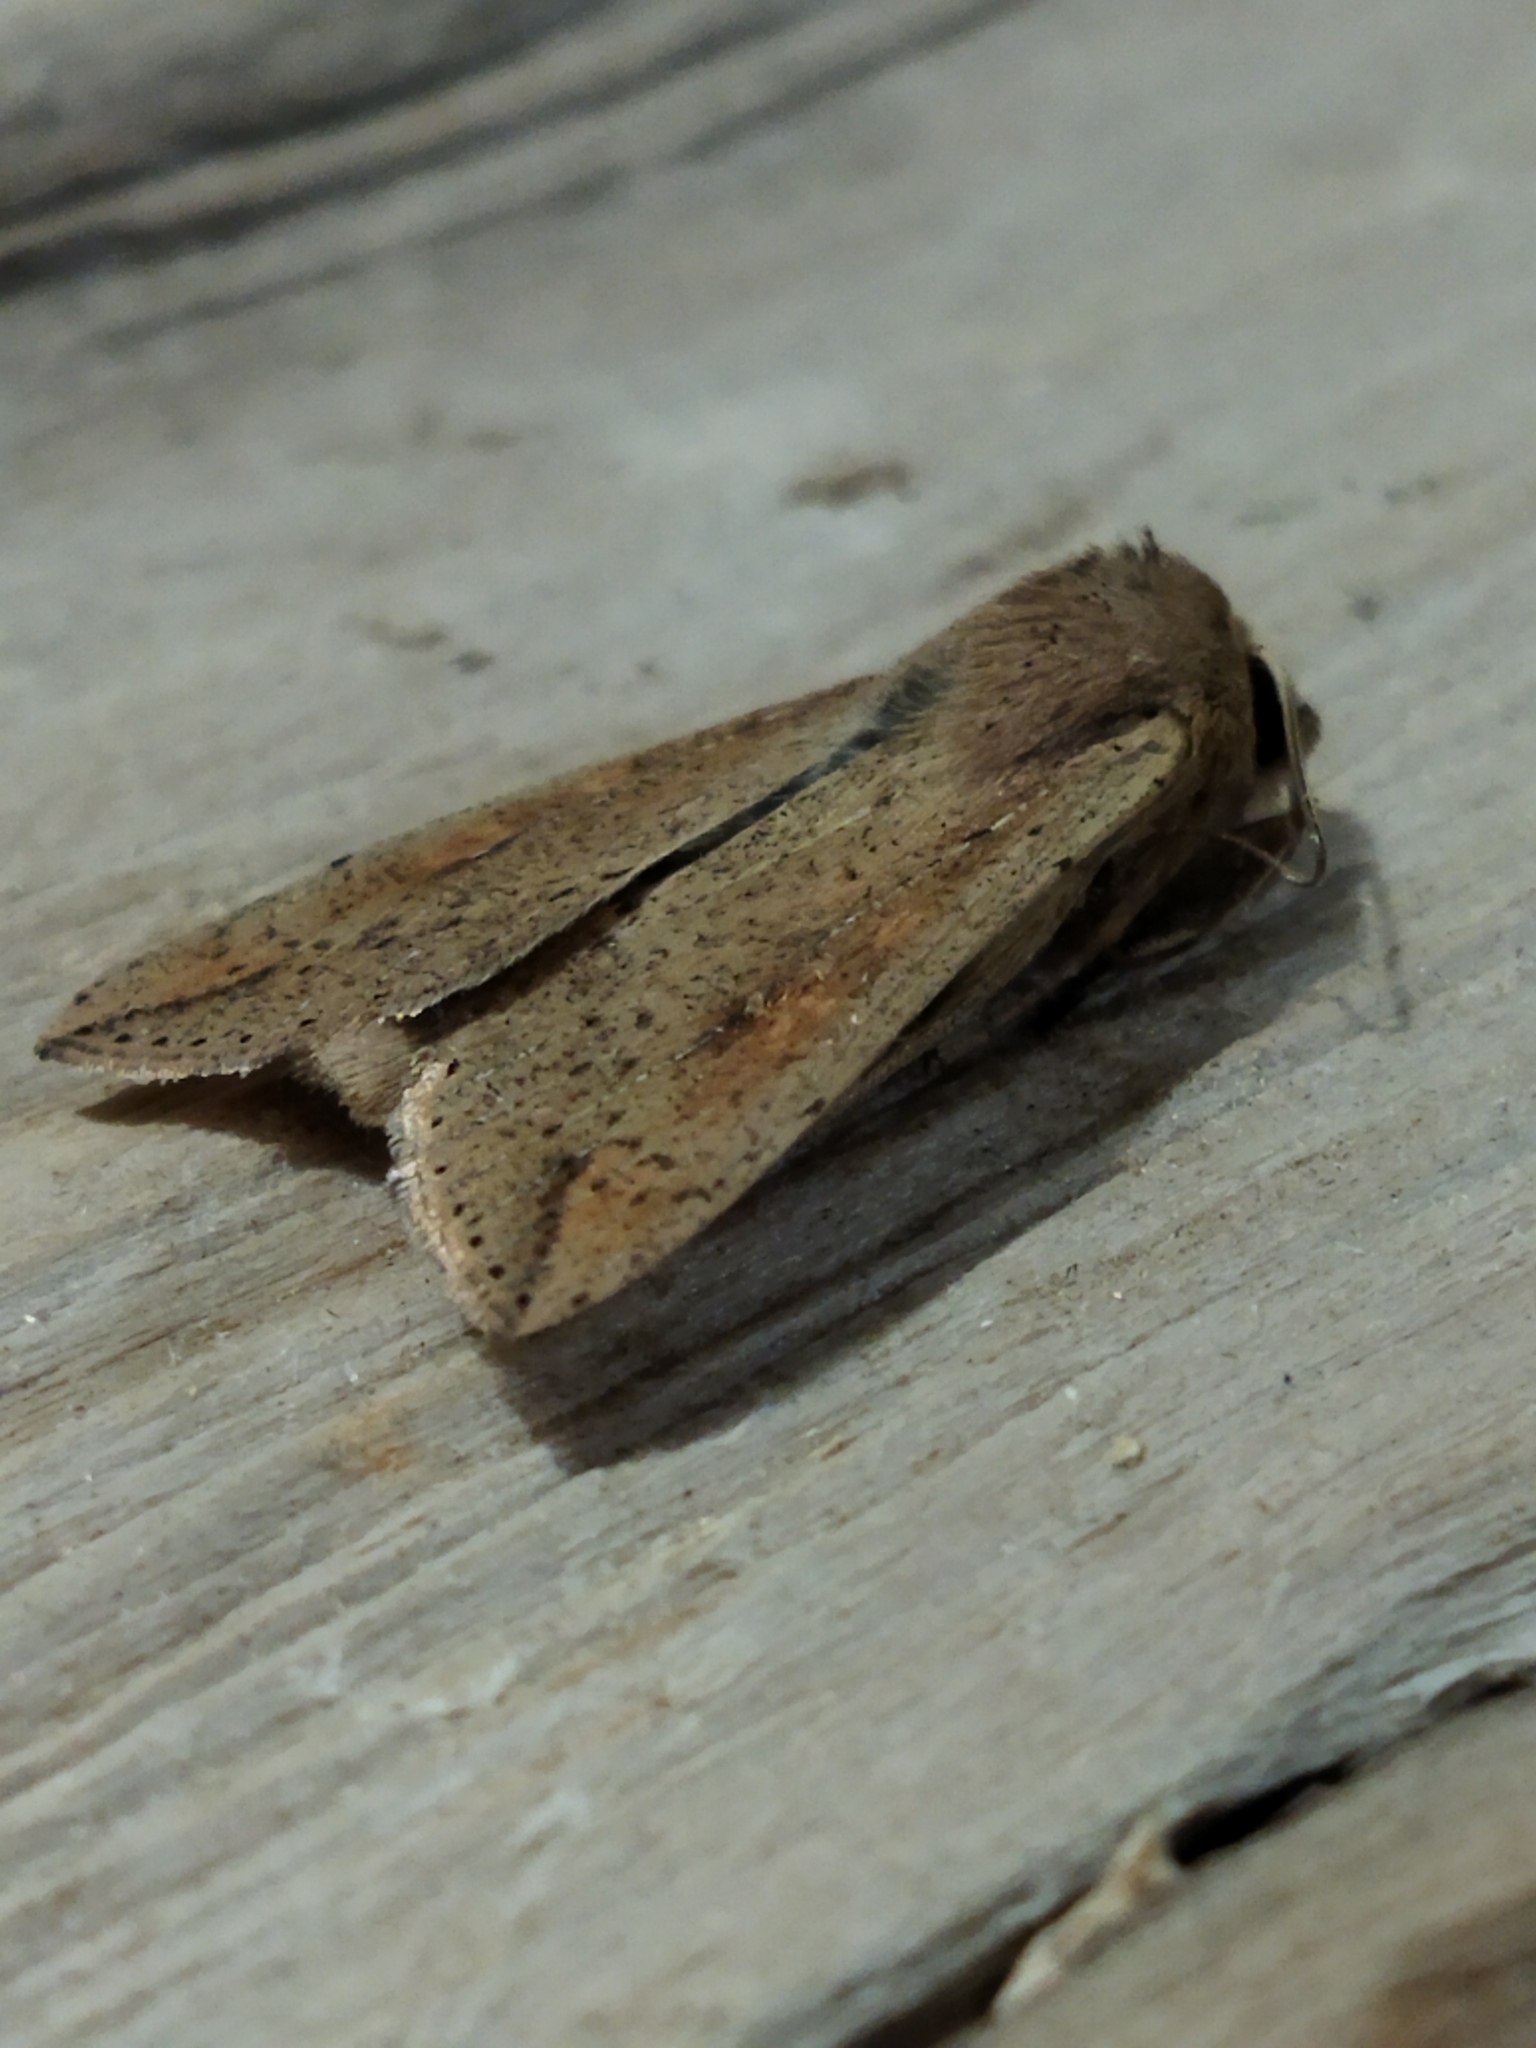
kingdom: Animalia
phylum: Arthropoda
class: Insecta
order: Lepidoptera
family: Noctuidae
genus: Mythimna
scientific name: Mythimna unipuncta
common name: White-speck
